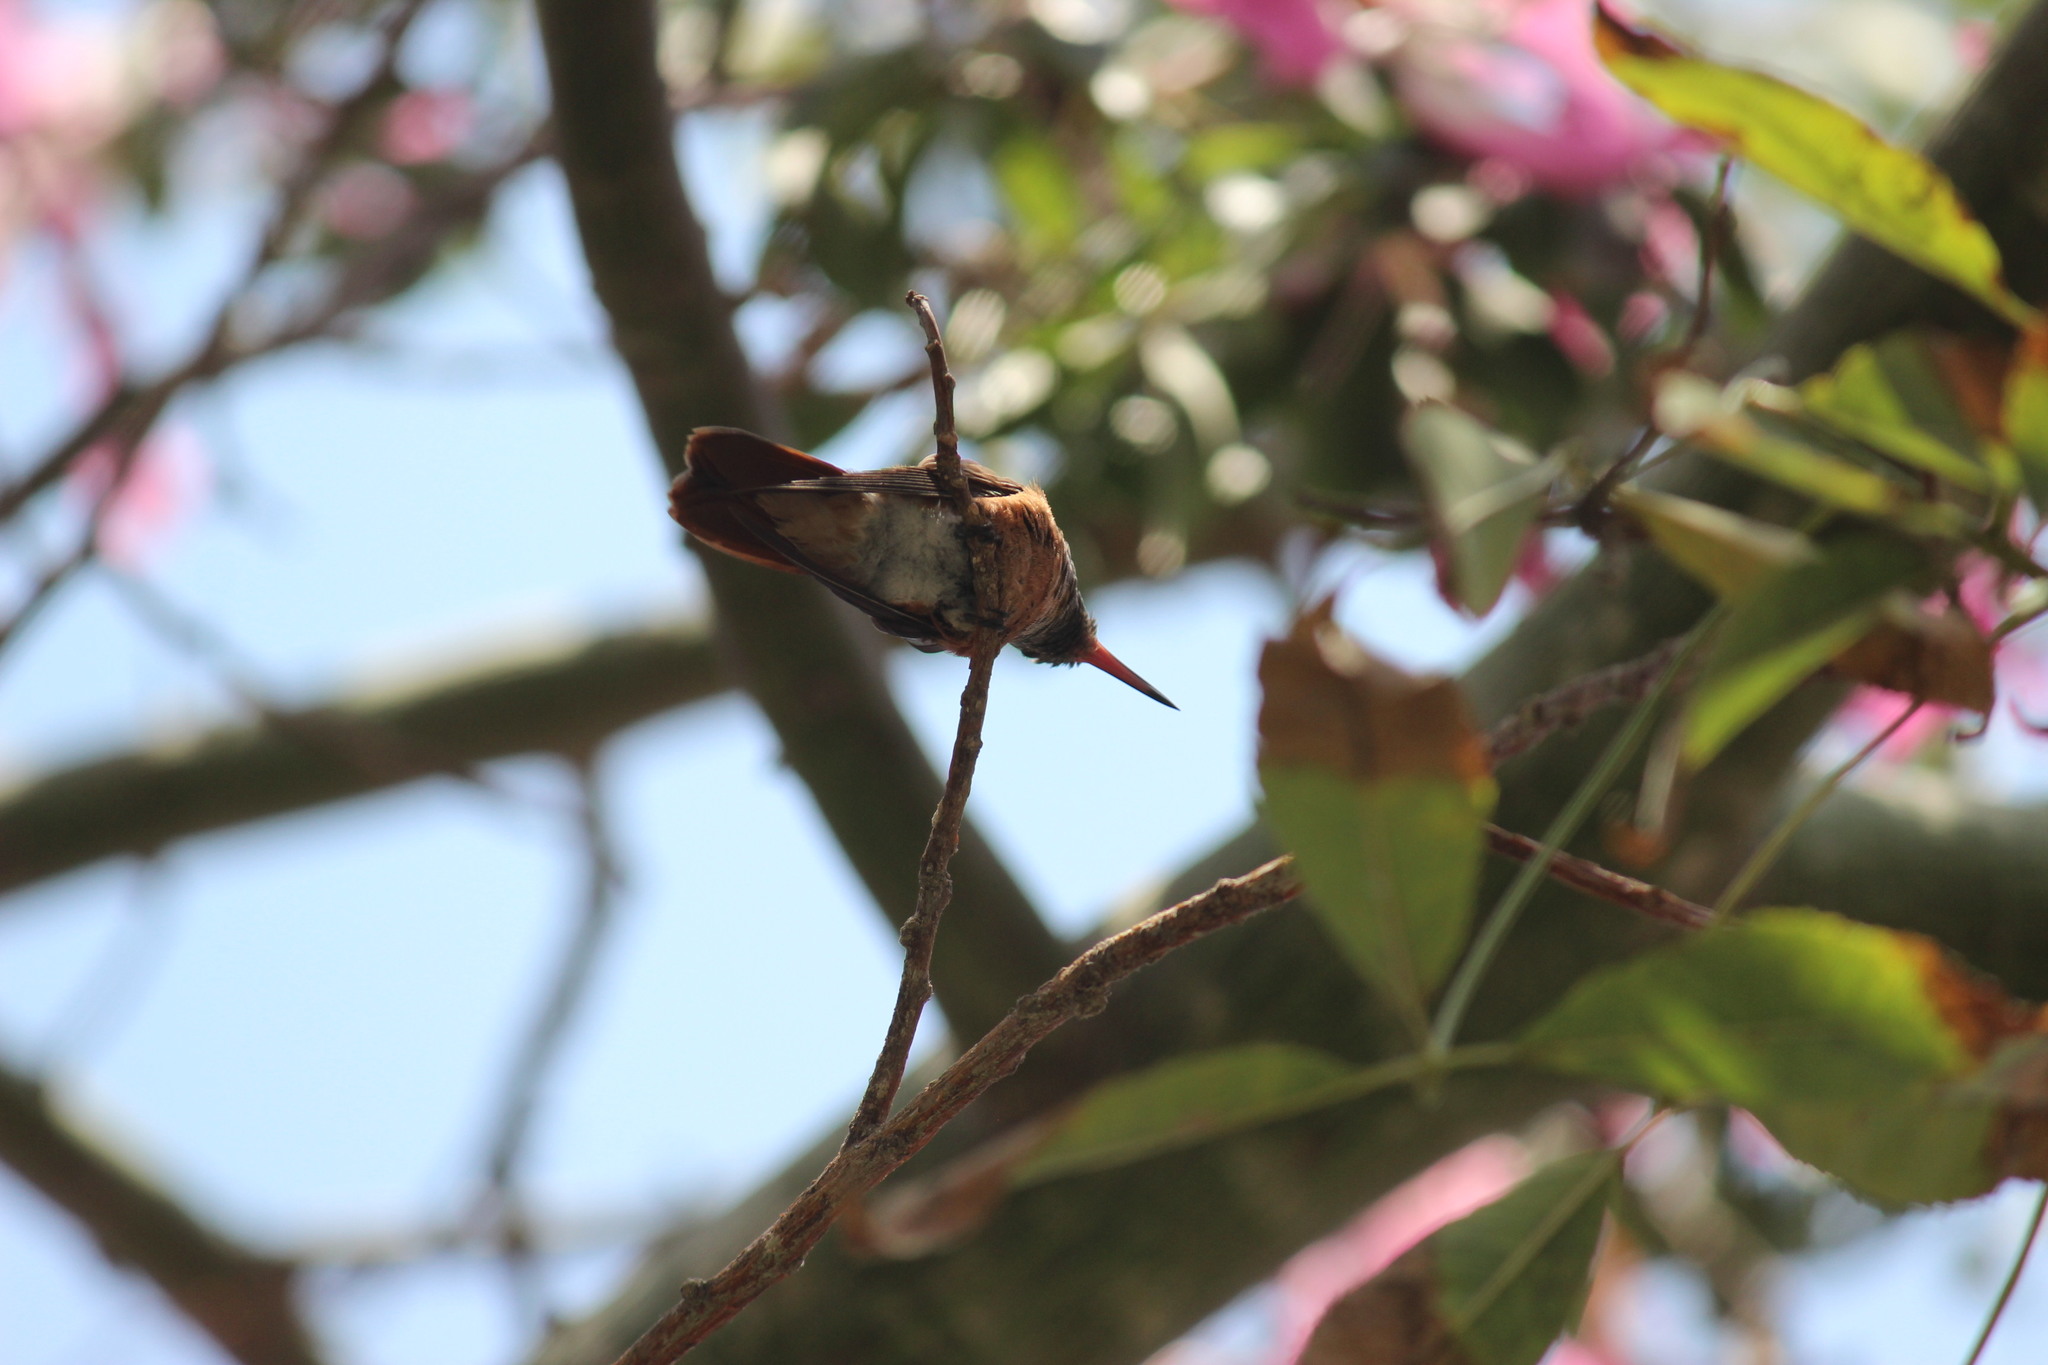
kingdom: Animalia
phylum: Chordata
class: Aves
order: Apodiformes
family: Trochilidae
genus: Amazilis
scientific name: Amazilis amazilia
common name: Amazilia hummingbird
